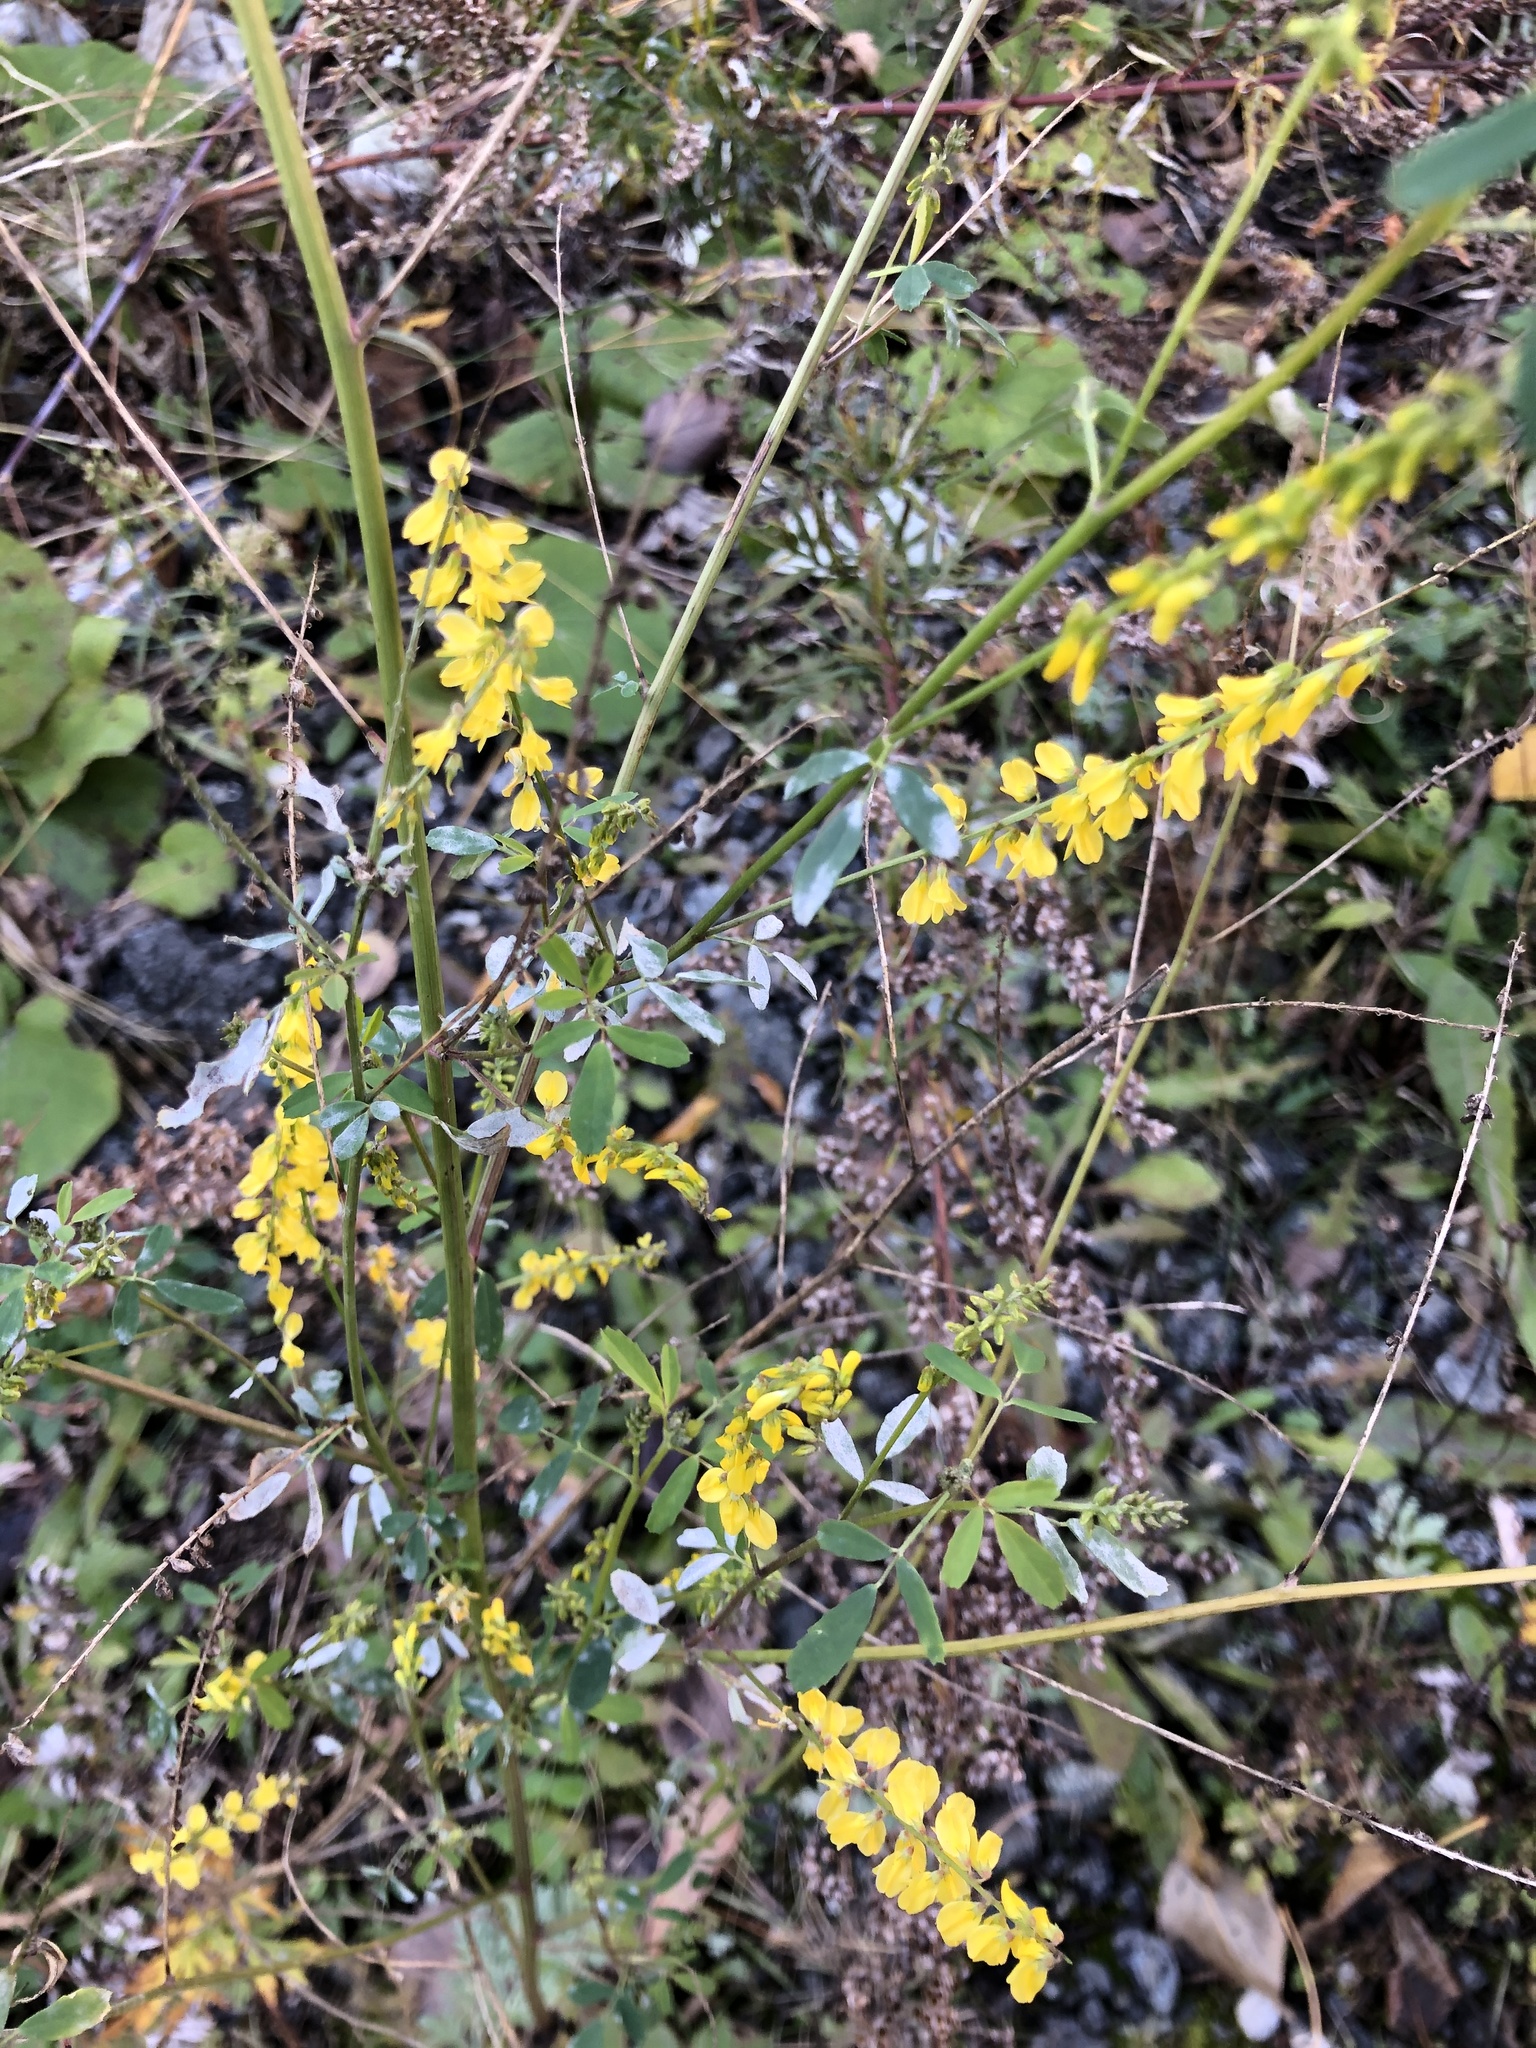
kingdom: Plantae
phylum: Tracheophyta
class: Magnoliopsida
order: Fabales
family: Fabaceae
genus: Melilotus
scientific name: Melilotus officinalis
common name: Sweetclover
